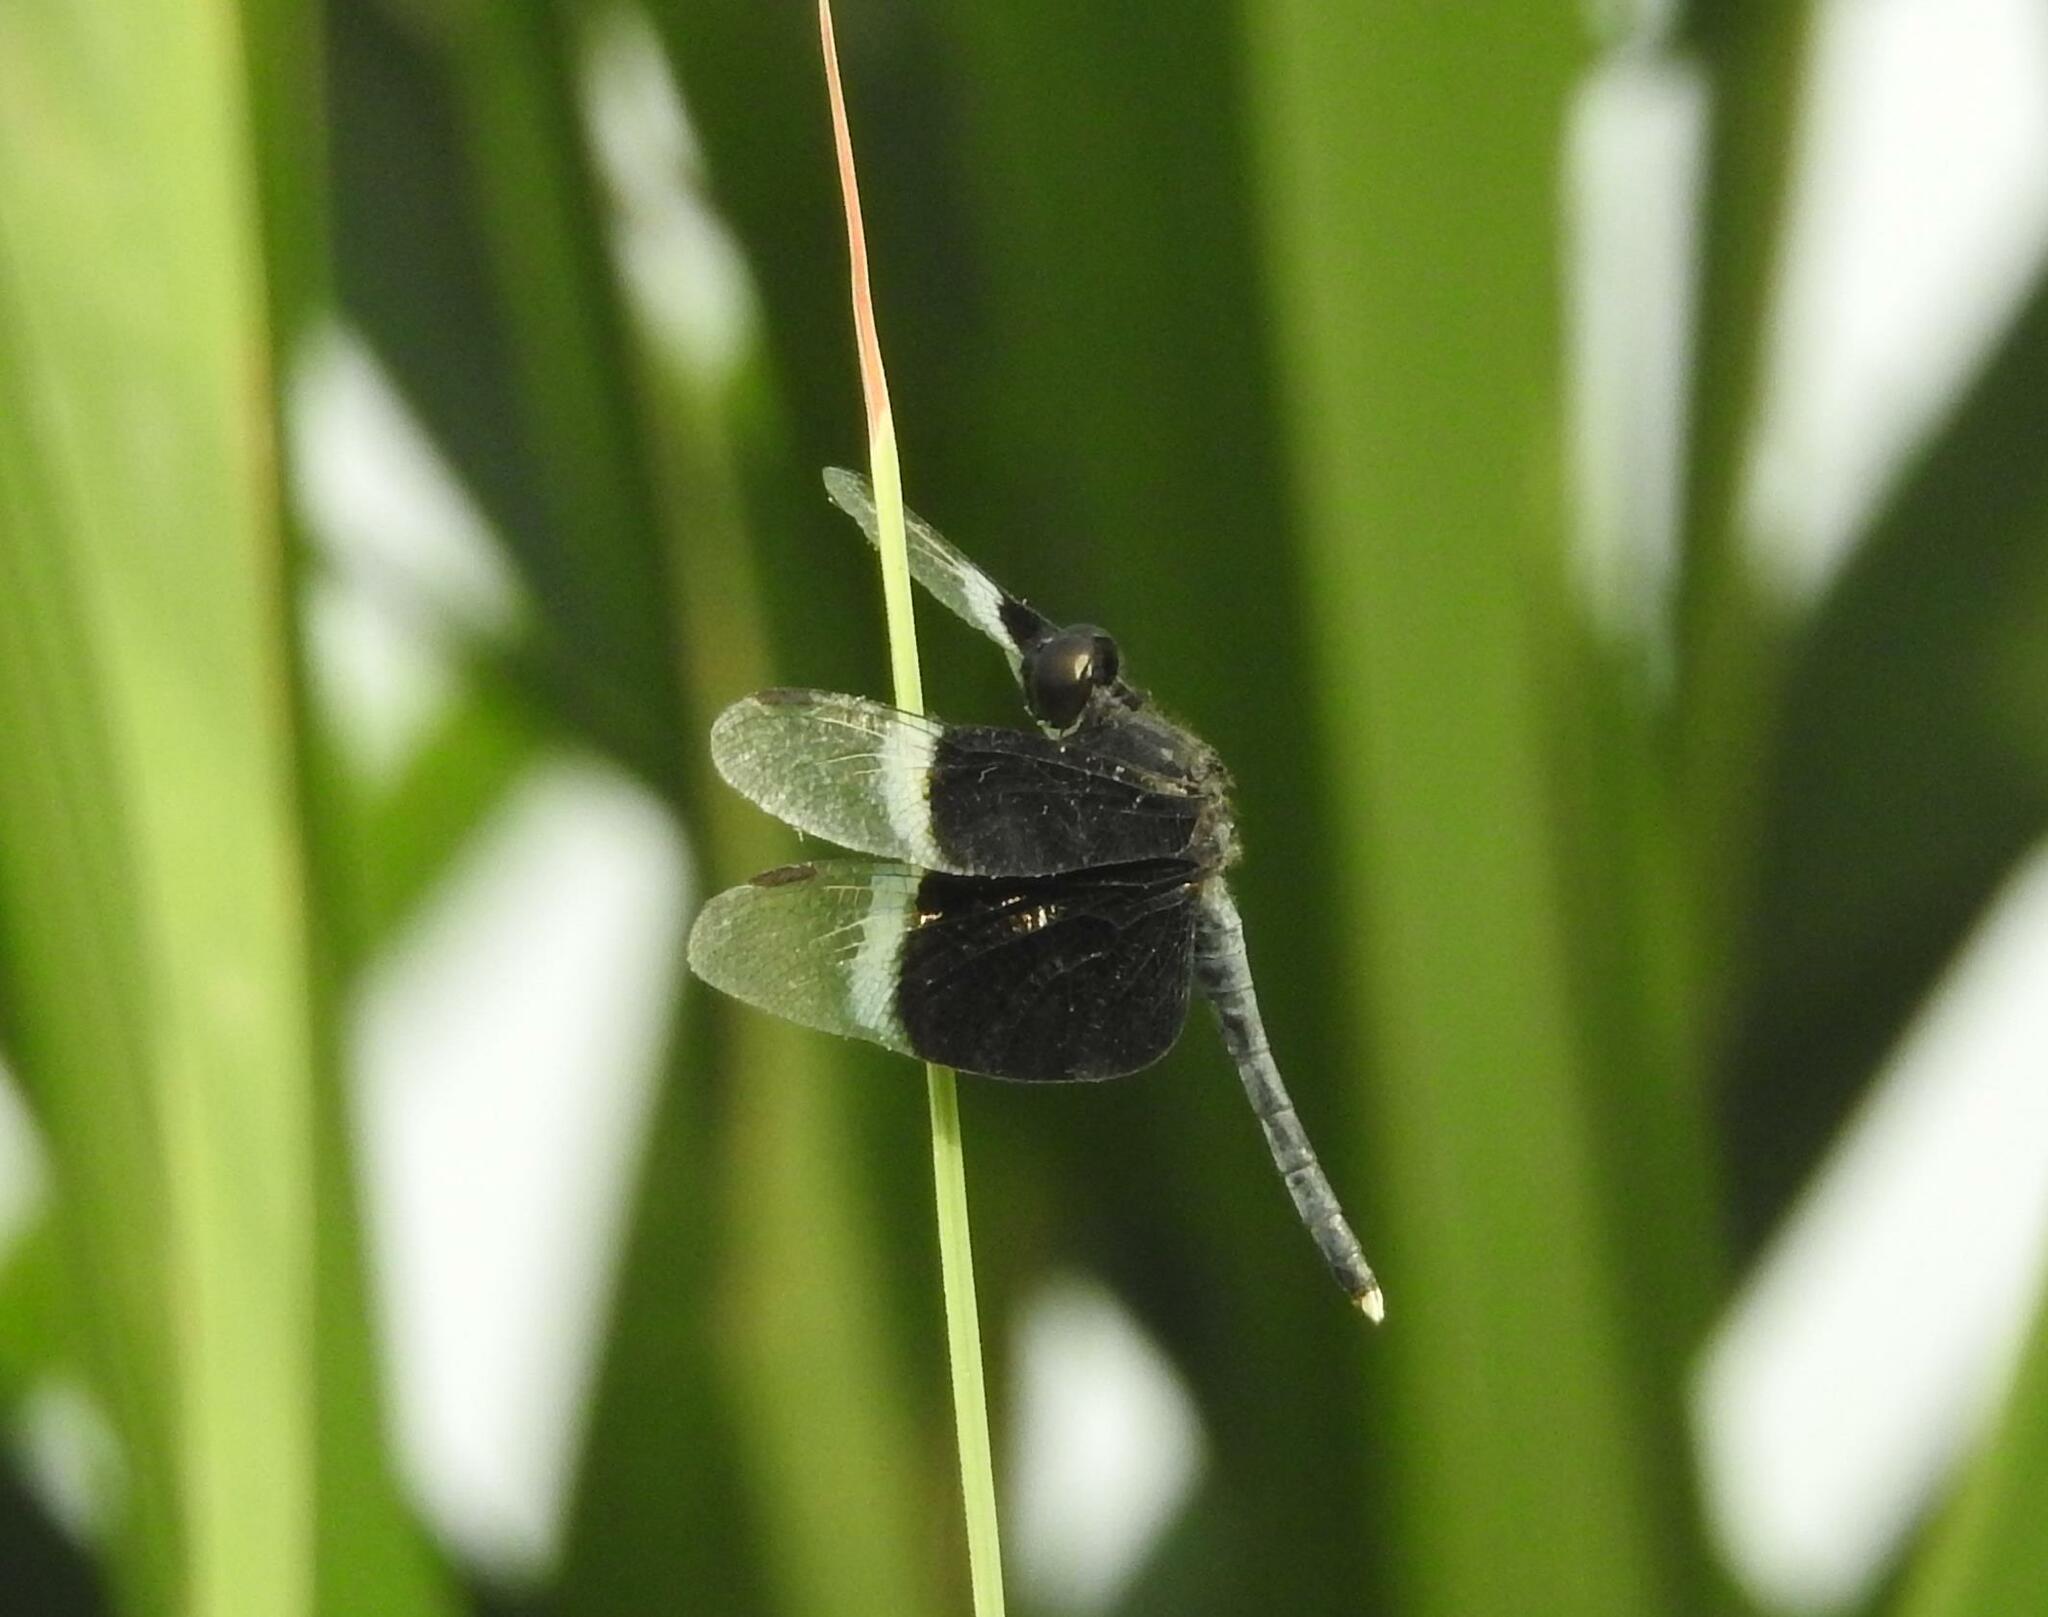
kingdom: Animalia
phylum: Arthropoda
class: Insecta
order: Odonata
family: Libellulidae
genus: Neurothemis
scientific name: Neurothemis tullia
